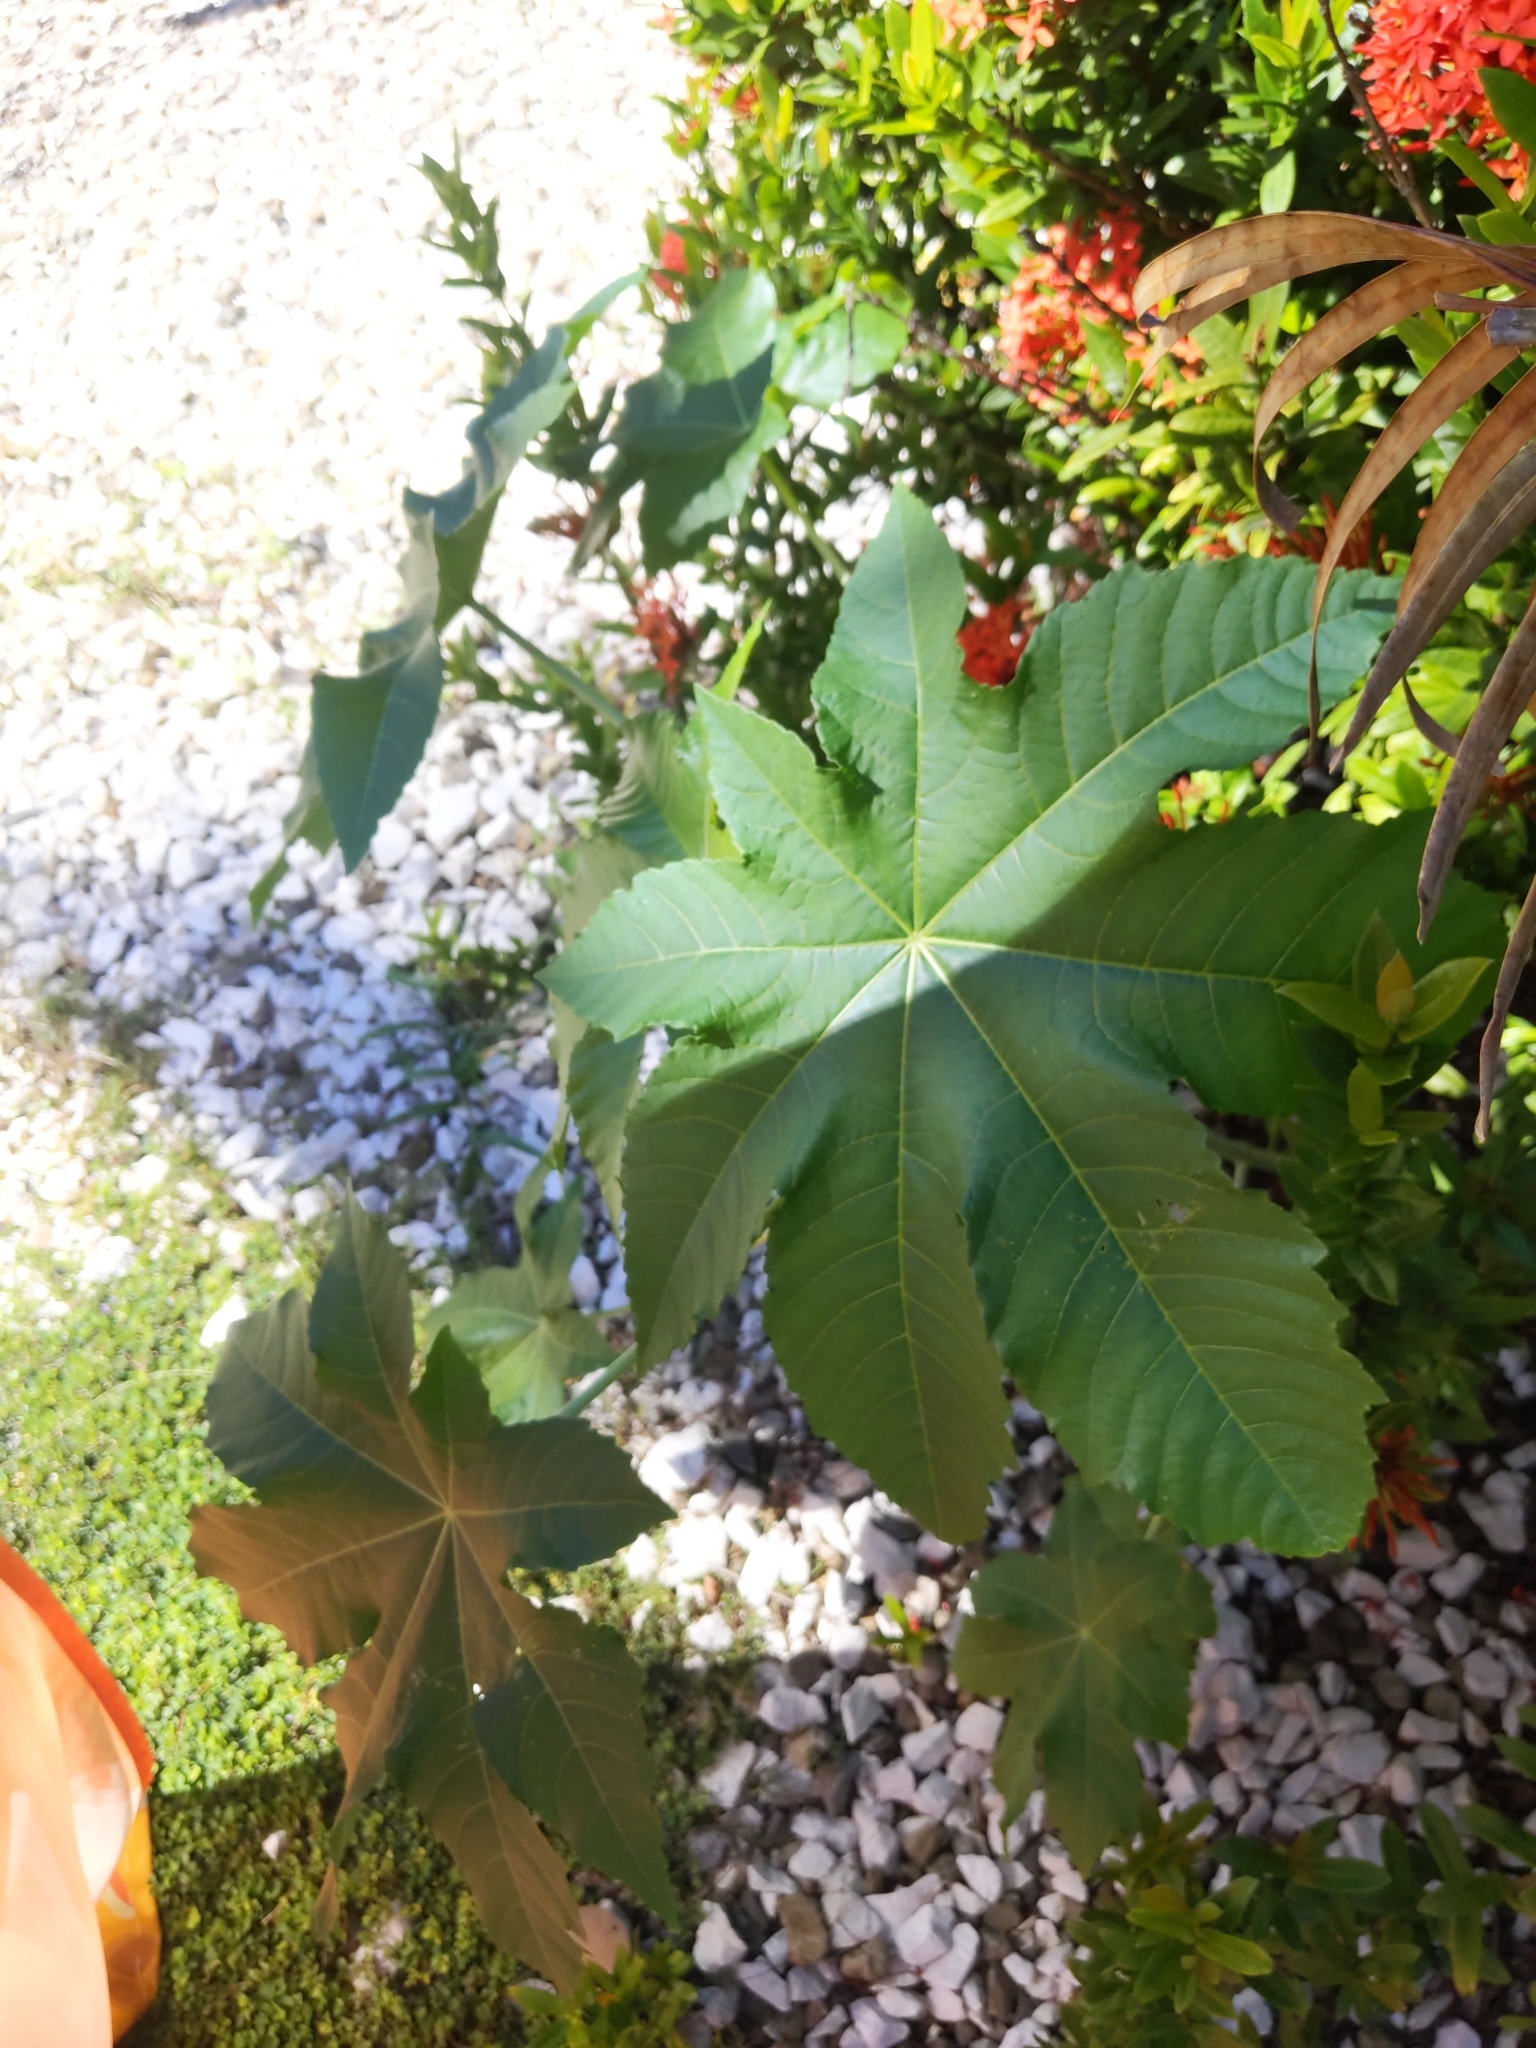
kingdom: Plantae
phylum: Tracheophyta
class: Magnoliopsida
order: Malpighiales
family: Euphorbiaceae
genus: Ricinus
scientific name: Ricinus communis
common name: Castor-oil-plant
